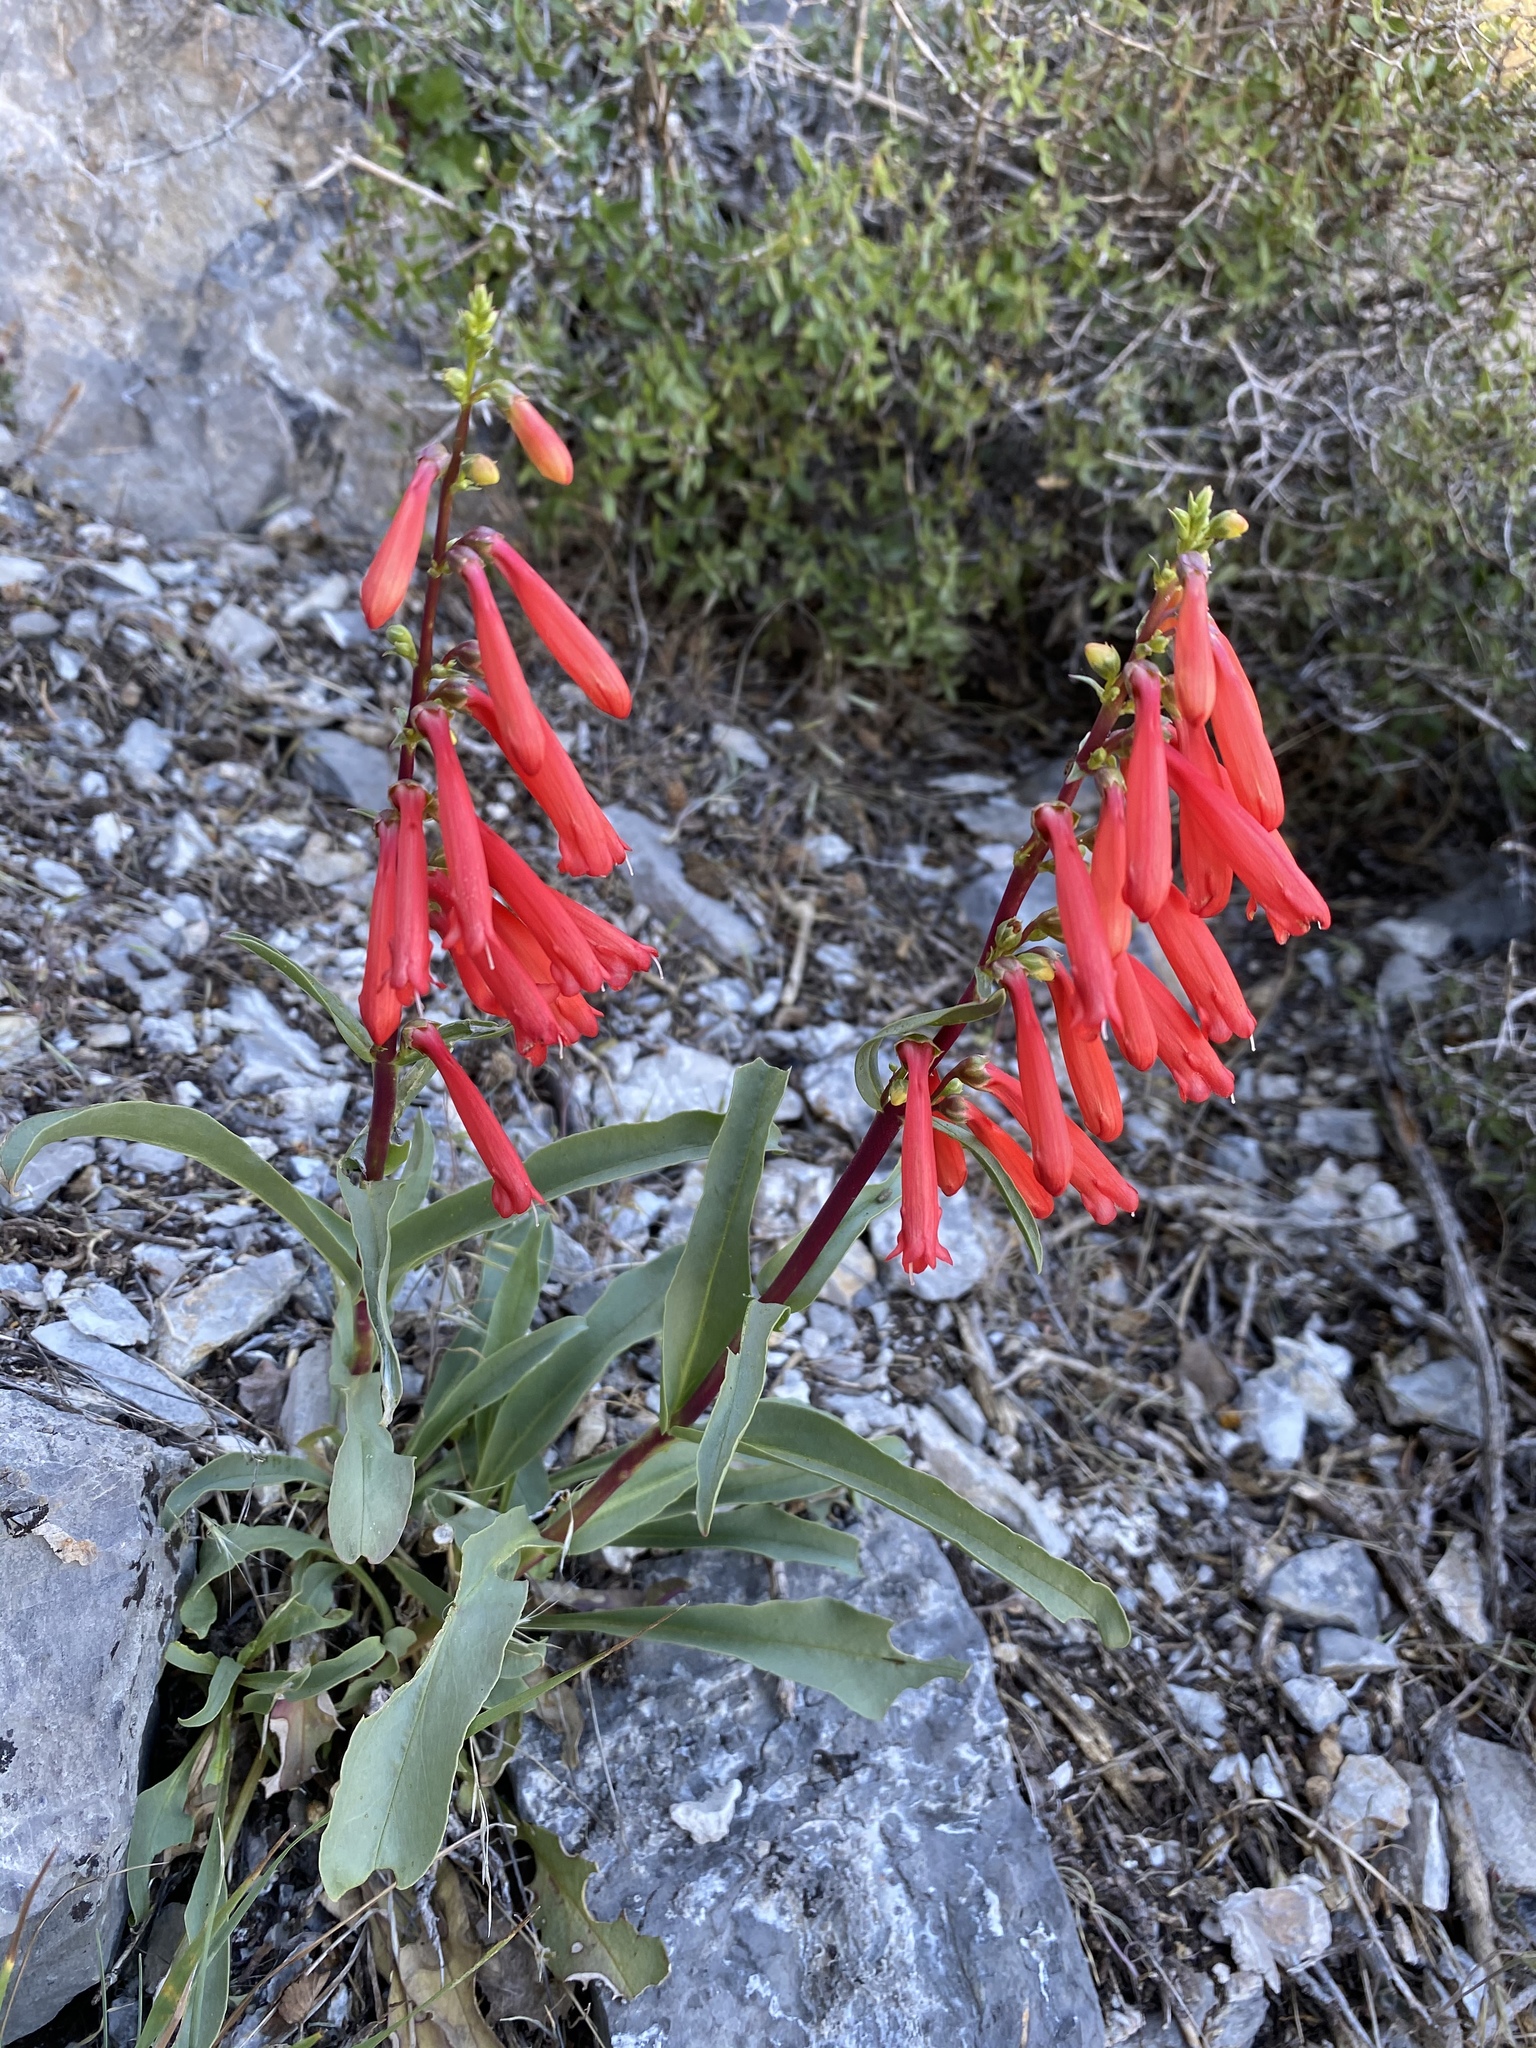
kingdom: Plantae
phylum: Tracheophyta
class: Magnoliopsida
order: Lamiales
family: Plantaginaceae
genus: Penstemon
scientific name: Penstemon eatonii
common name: Eaton's penstemon
